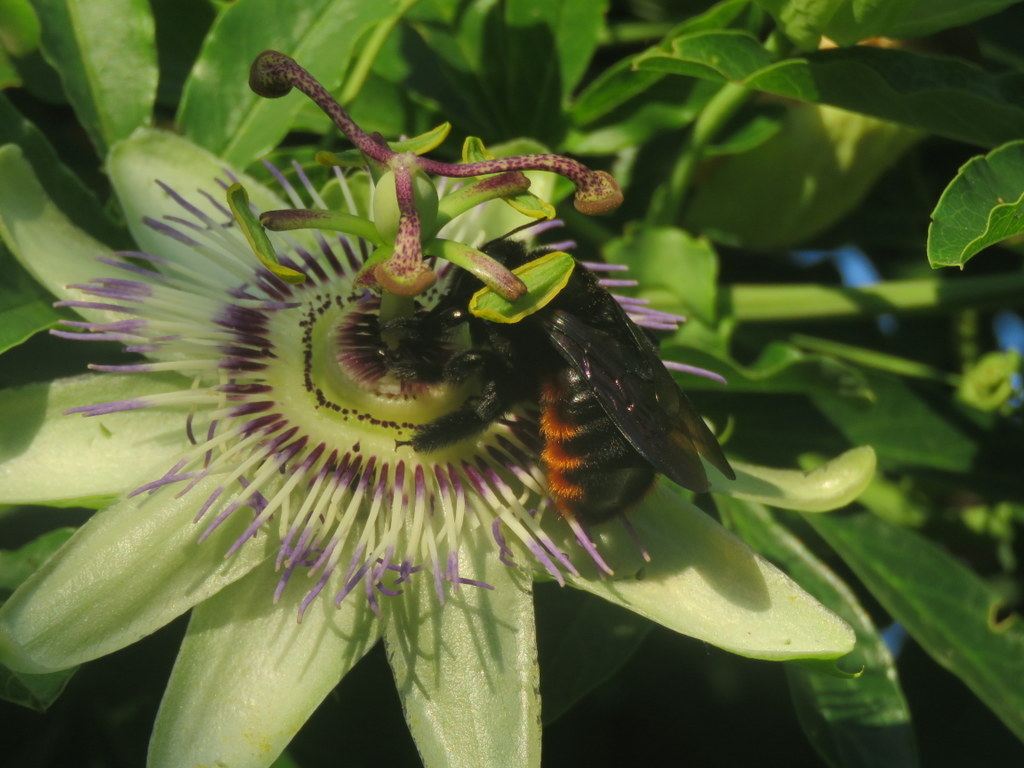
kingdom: Animalia
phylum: Arthropoda
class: Insecta
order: Hymenoptera
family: Apidae
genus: Xylocopa
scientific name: Xylocopa augusti
